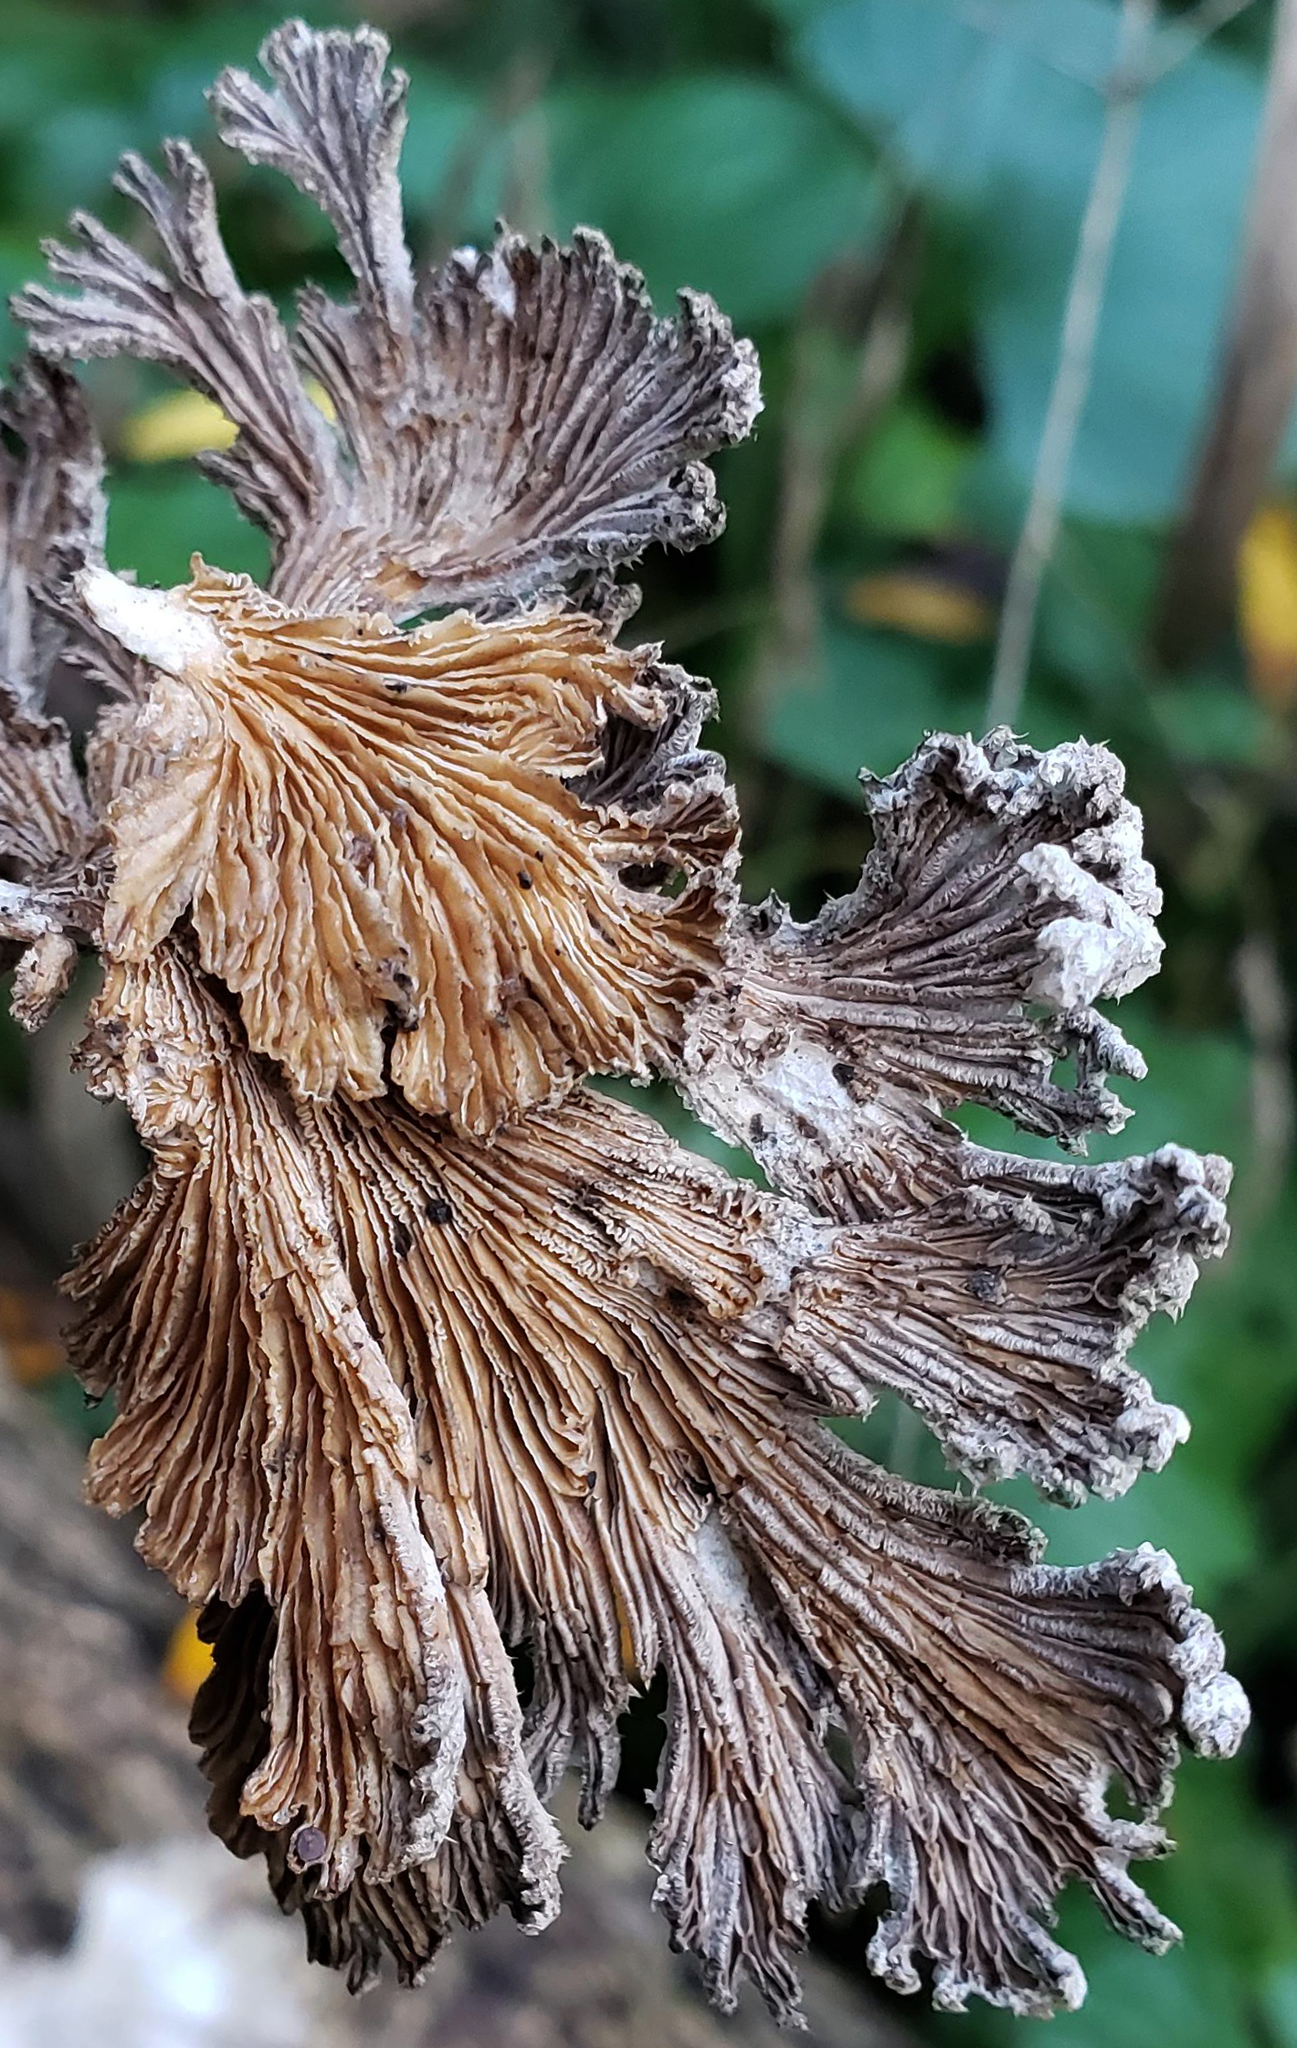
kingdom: Fungi
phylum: Basidiomycota
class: Agaricomycetes
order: Agaricales
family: Schizophyllaceae
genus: Schizophyllum
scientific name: Schizophyllum commune
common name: Common porecrust
